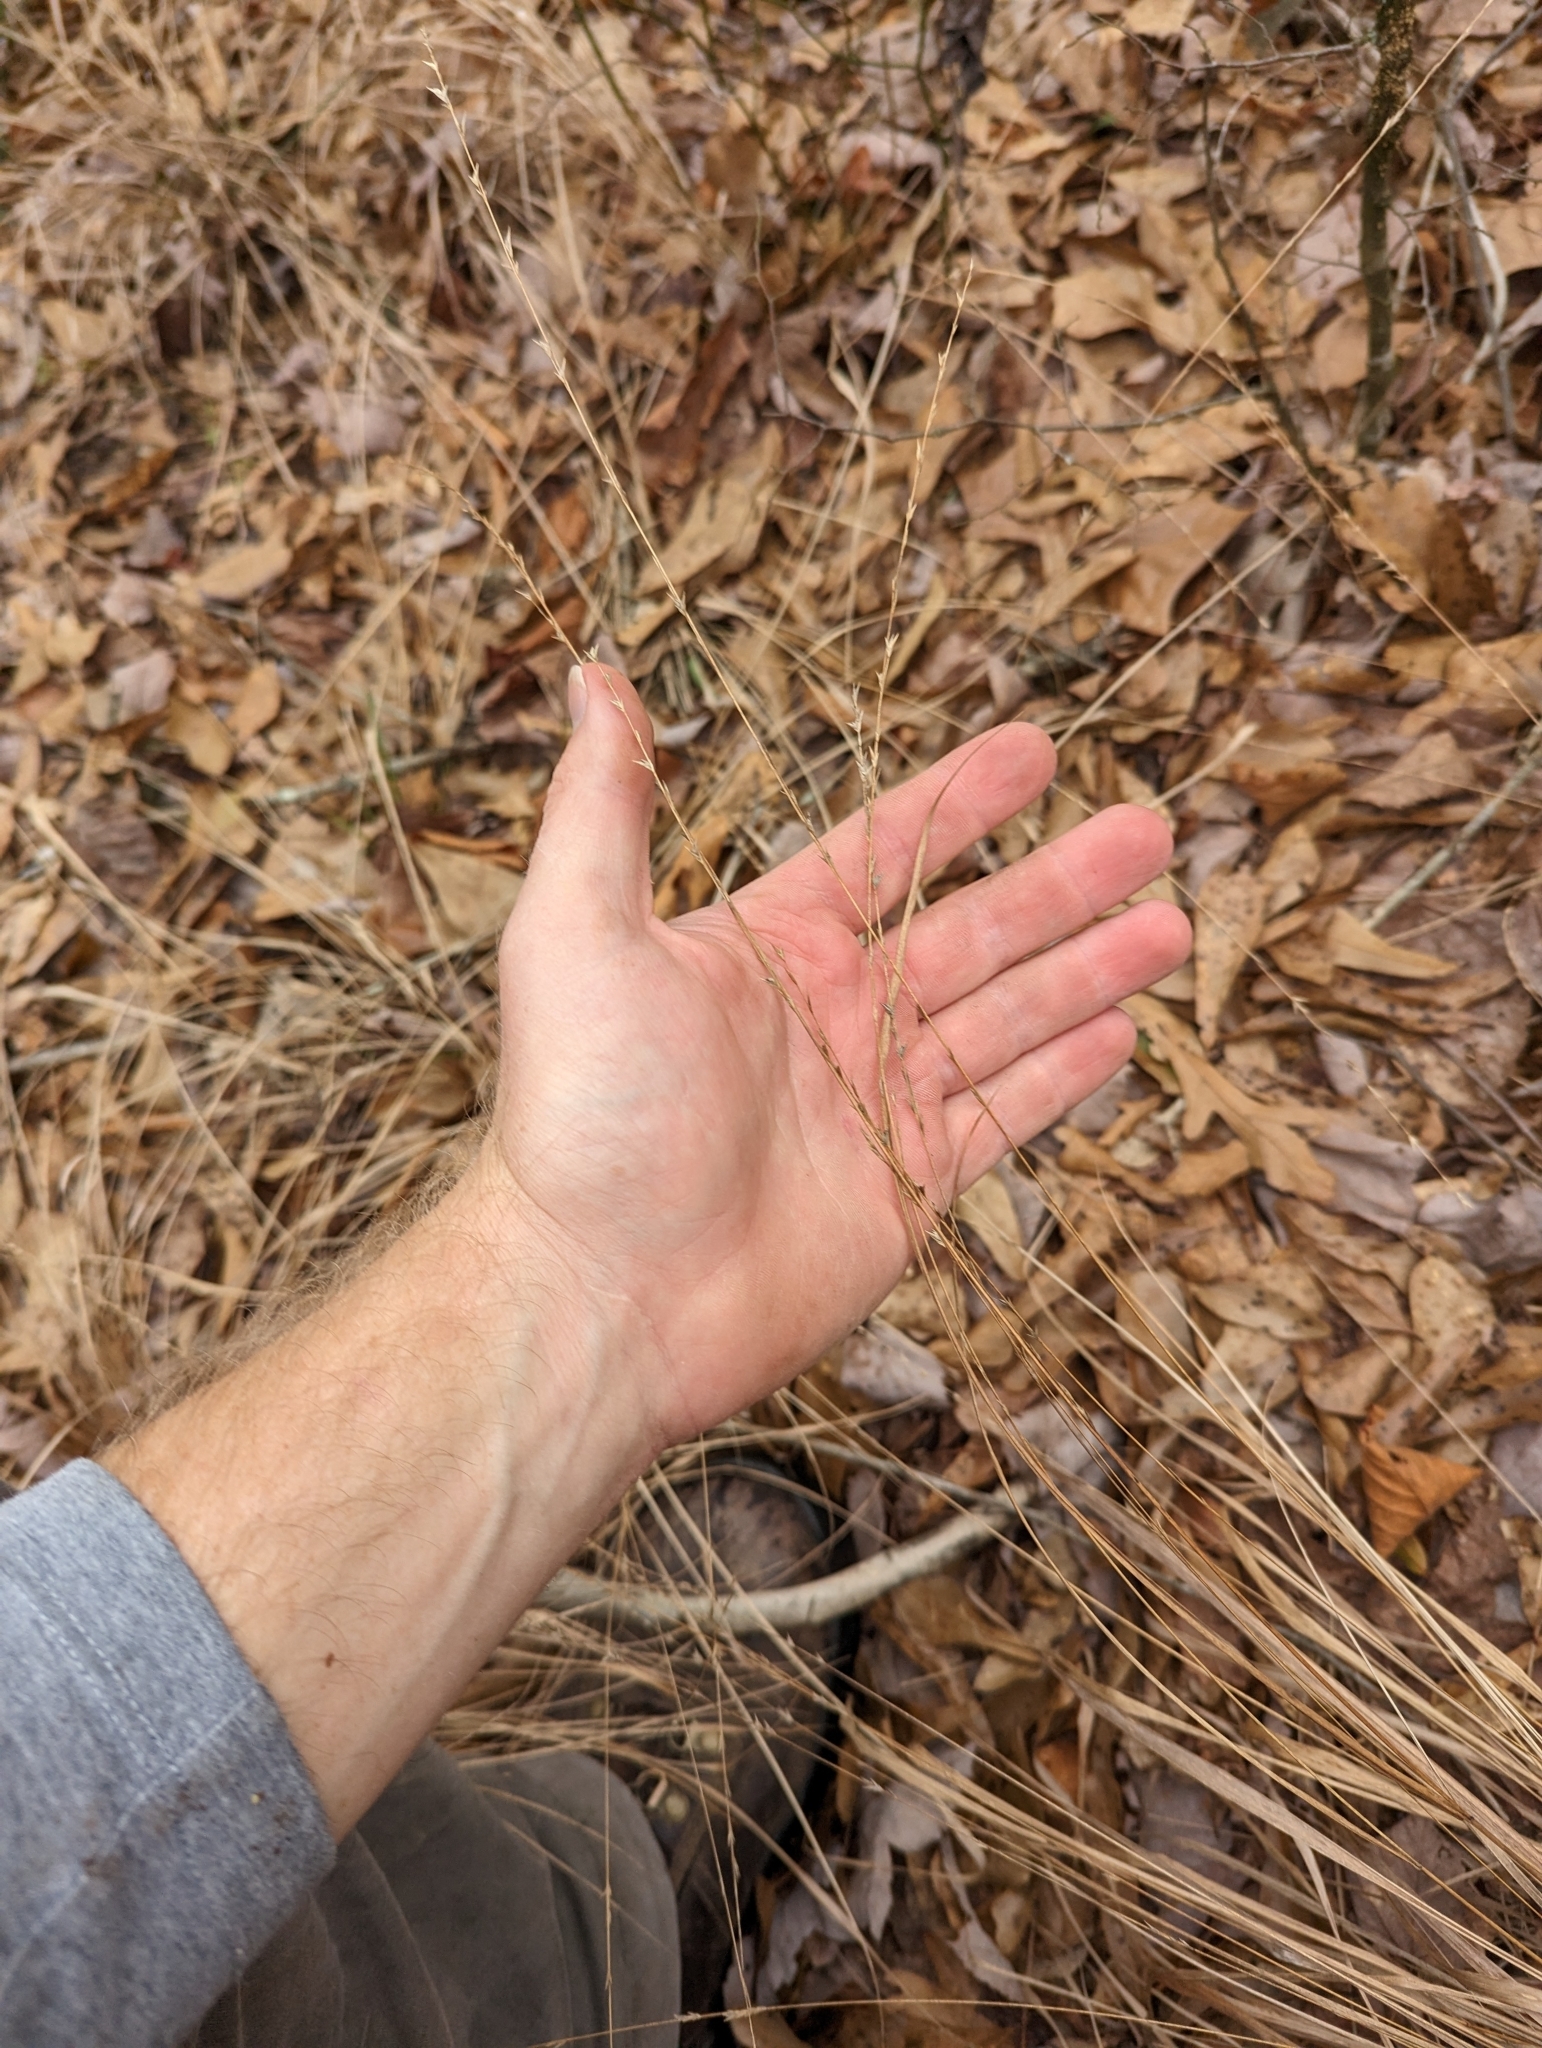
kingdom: Plantae
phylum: Tracheophyta
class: Liliopsida
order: Poales
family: Poaceae
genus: Chasmanthium
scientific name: Chasmanthium laxum
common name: Slender chasmanthium
